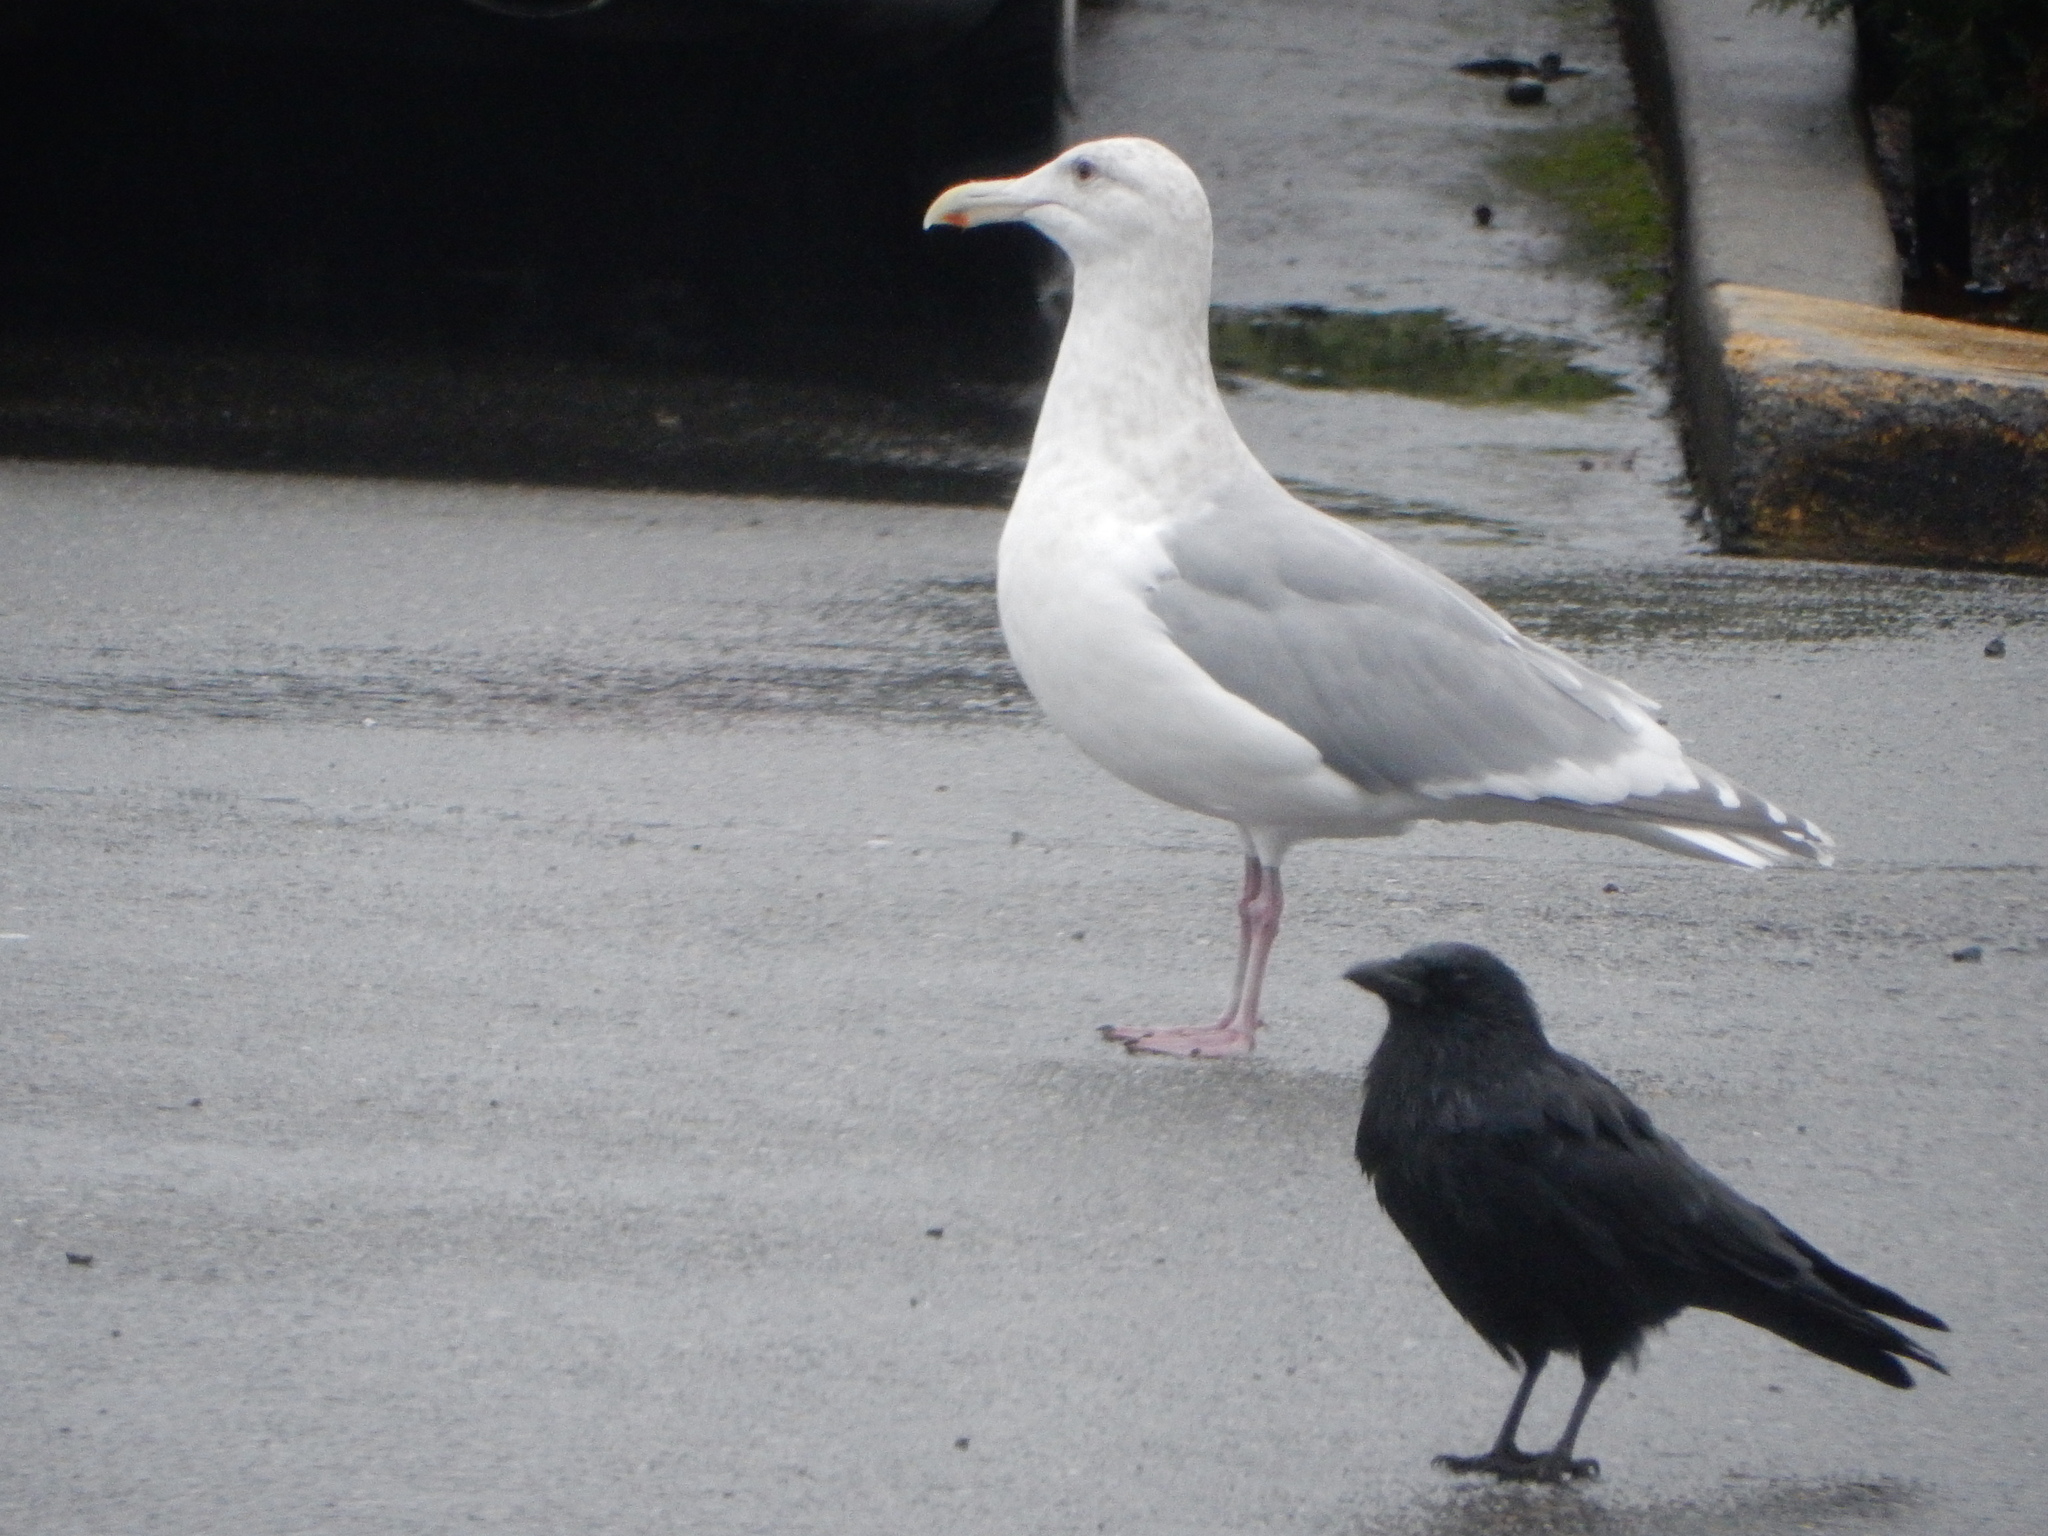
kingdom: Animalia
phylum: Chordata
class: Aves
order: Charadriiformes
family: Laridae
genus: Larus
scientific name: Larus glaucescens
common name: Glaucous-winged gull
